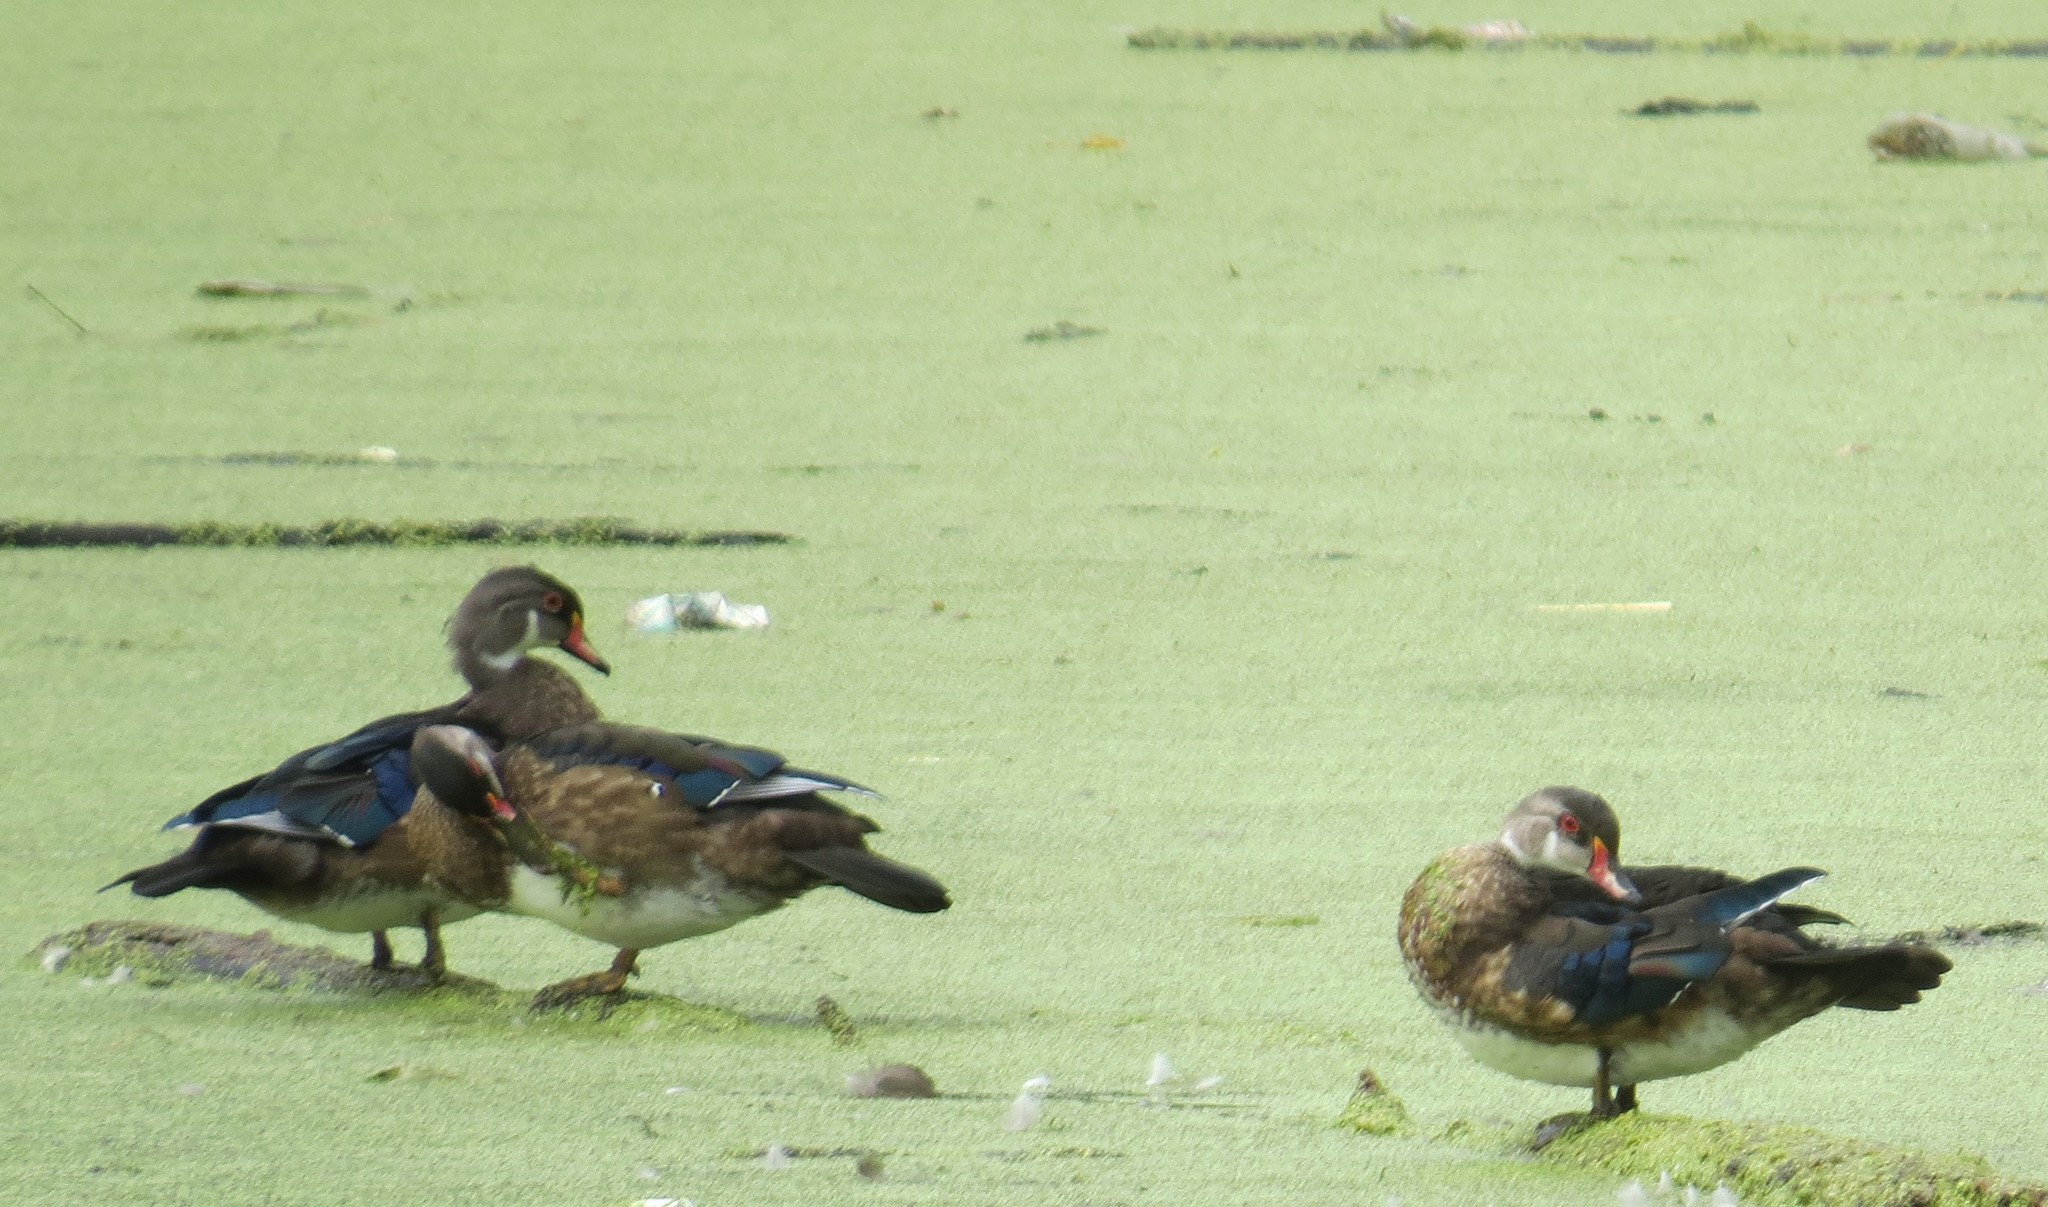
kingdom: Animalia
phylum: Chordata
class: Aves
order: Anseriformes
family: Anatidae
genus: Aix
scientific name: Aix sponsa
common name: Wood duck
